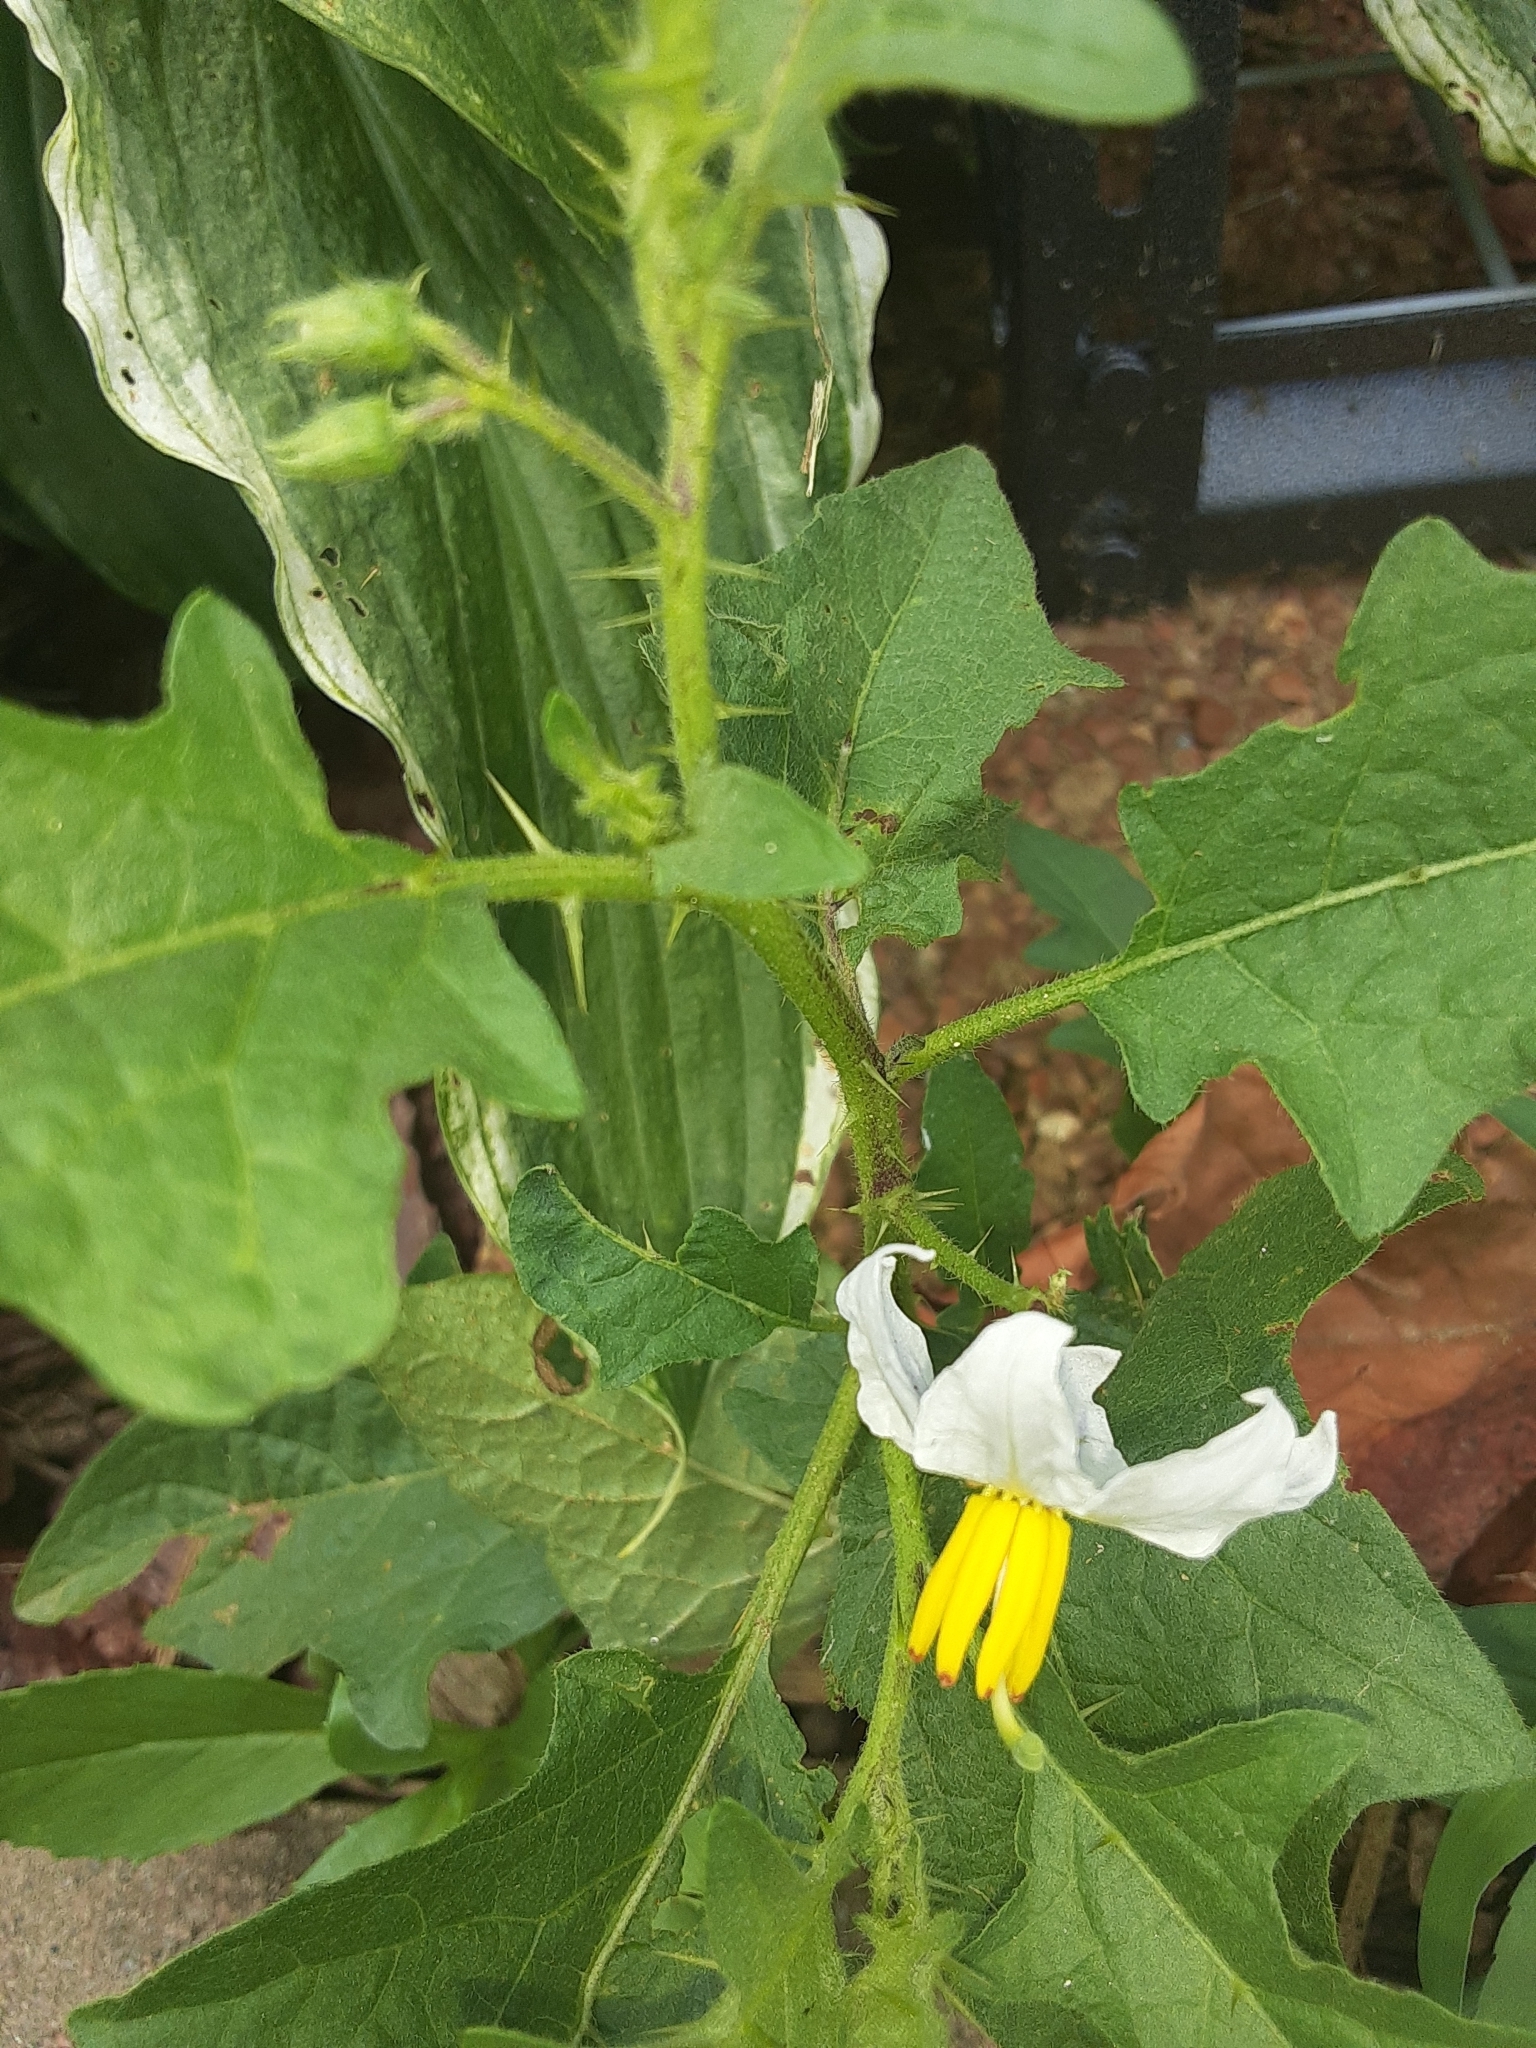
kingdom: Plantae
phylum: Tracheophyta
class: Magnoliopsida
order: Solanales
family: Solanaceae
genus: Solanum
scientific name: Solanum carolinense
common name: Horse-nettle
